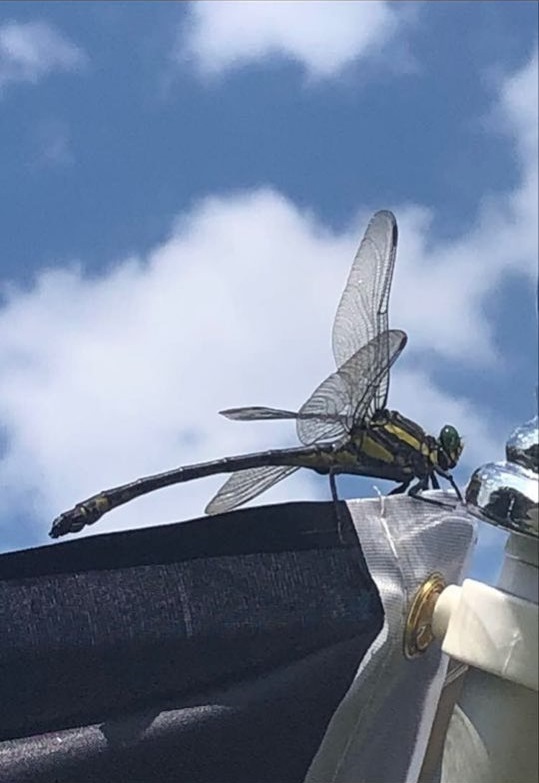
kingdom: Animalia
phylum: Arthropoda
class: Insecta
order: Odonata
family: Gomphidae
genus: Hagenius
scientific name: Hagenius brevistylus
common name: Dragonhunter
